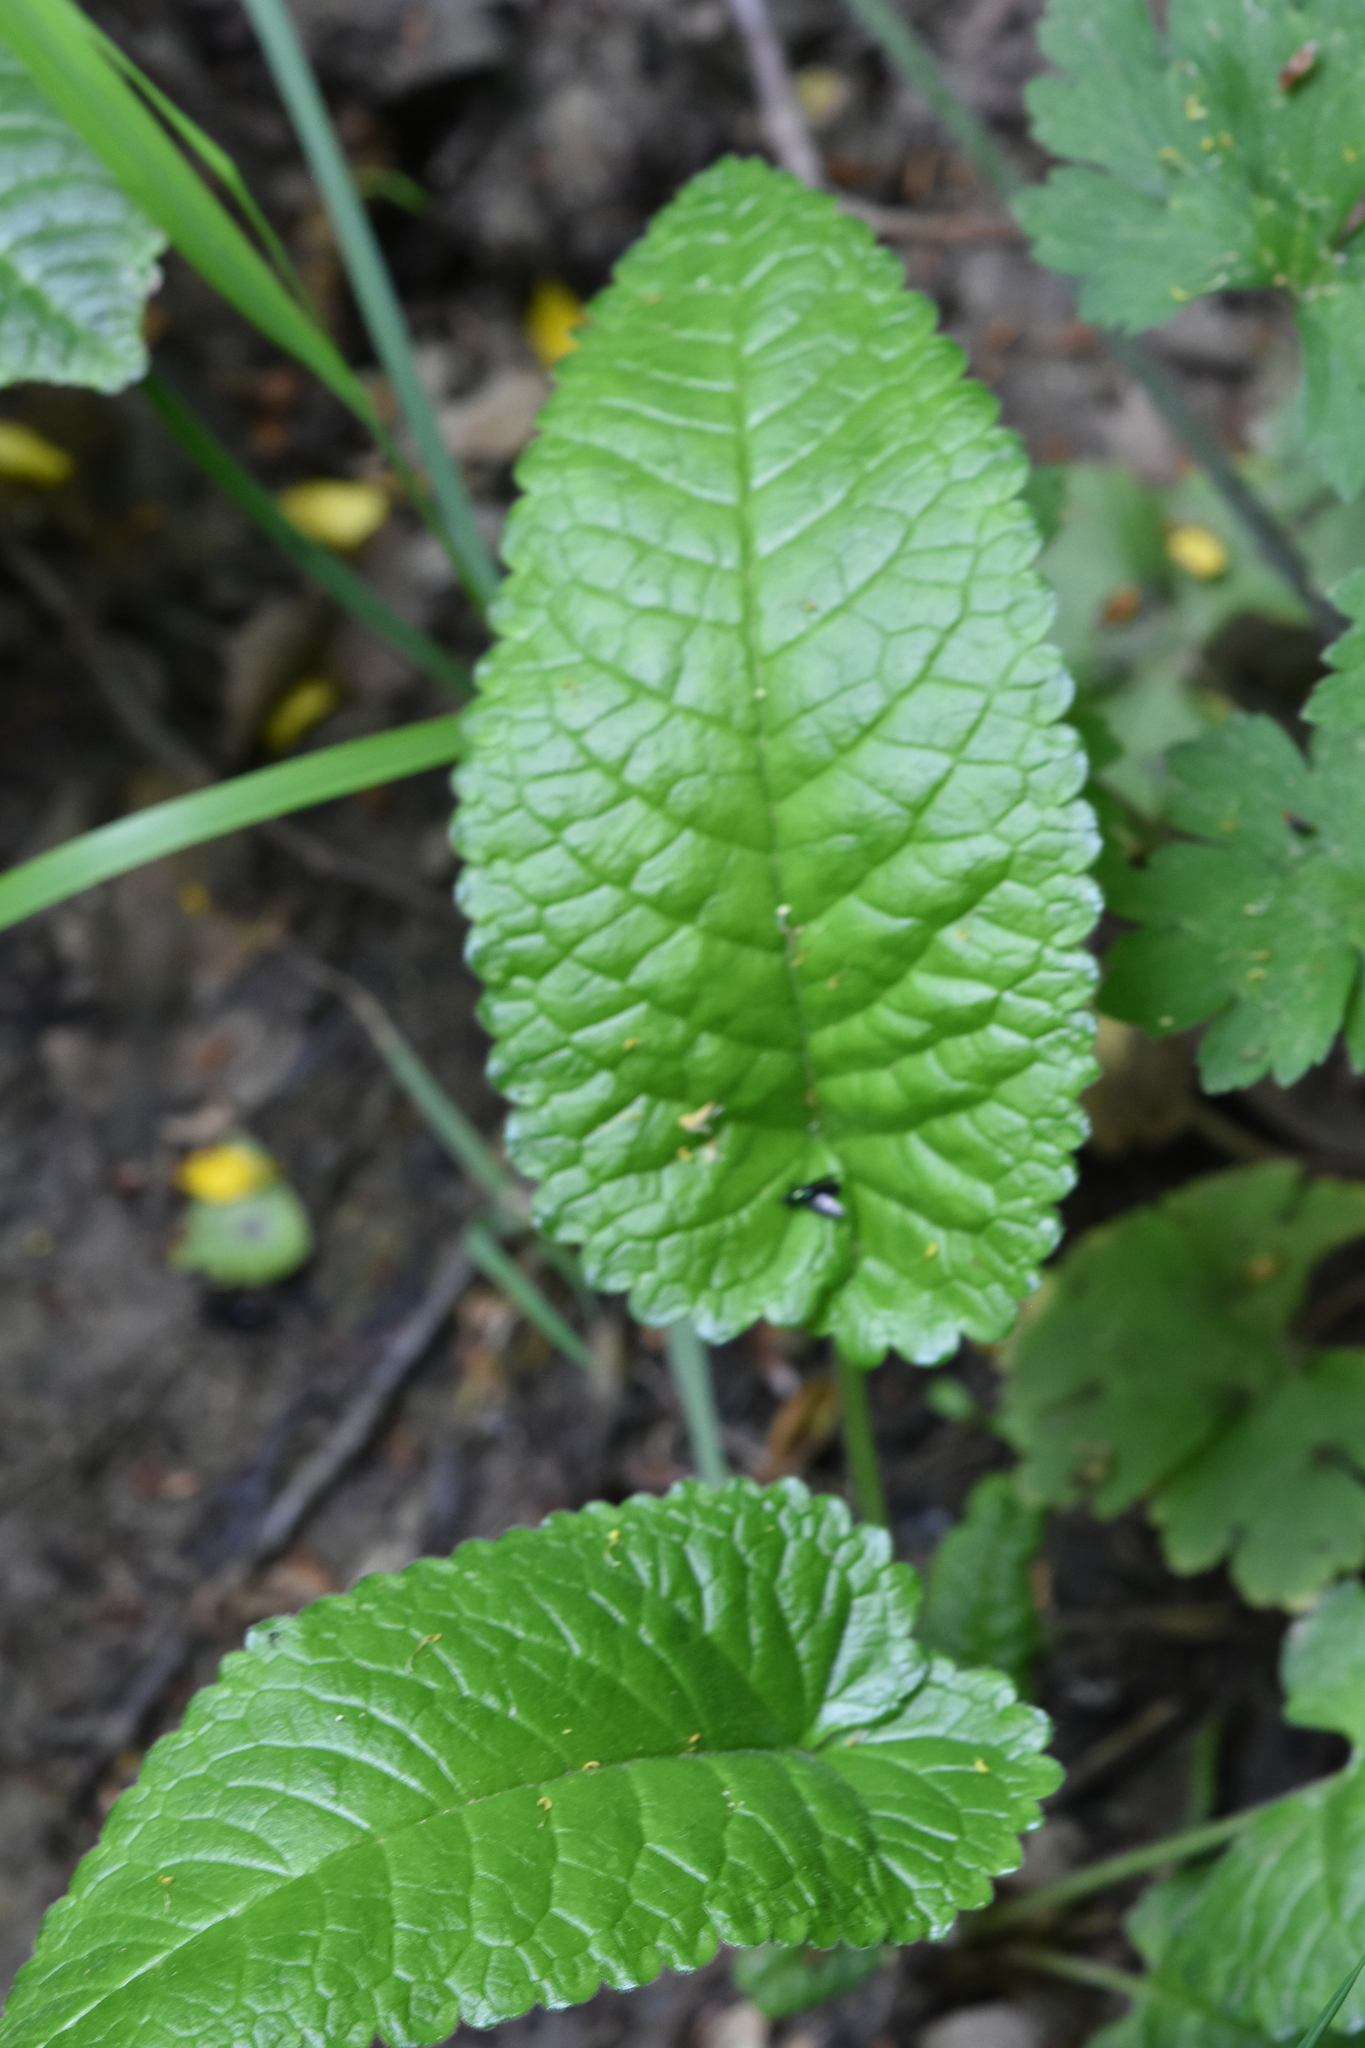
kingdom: Plantae
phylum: Tracheophyta
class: Magnoliopsida
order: Lamiales
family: Lamiaceae
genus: Betonica
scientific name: Betonica officinalis
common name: Bishop's-wort
